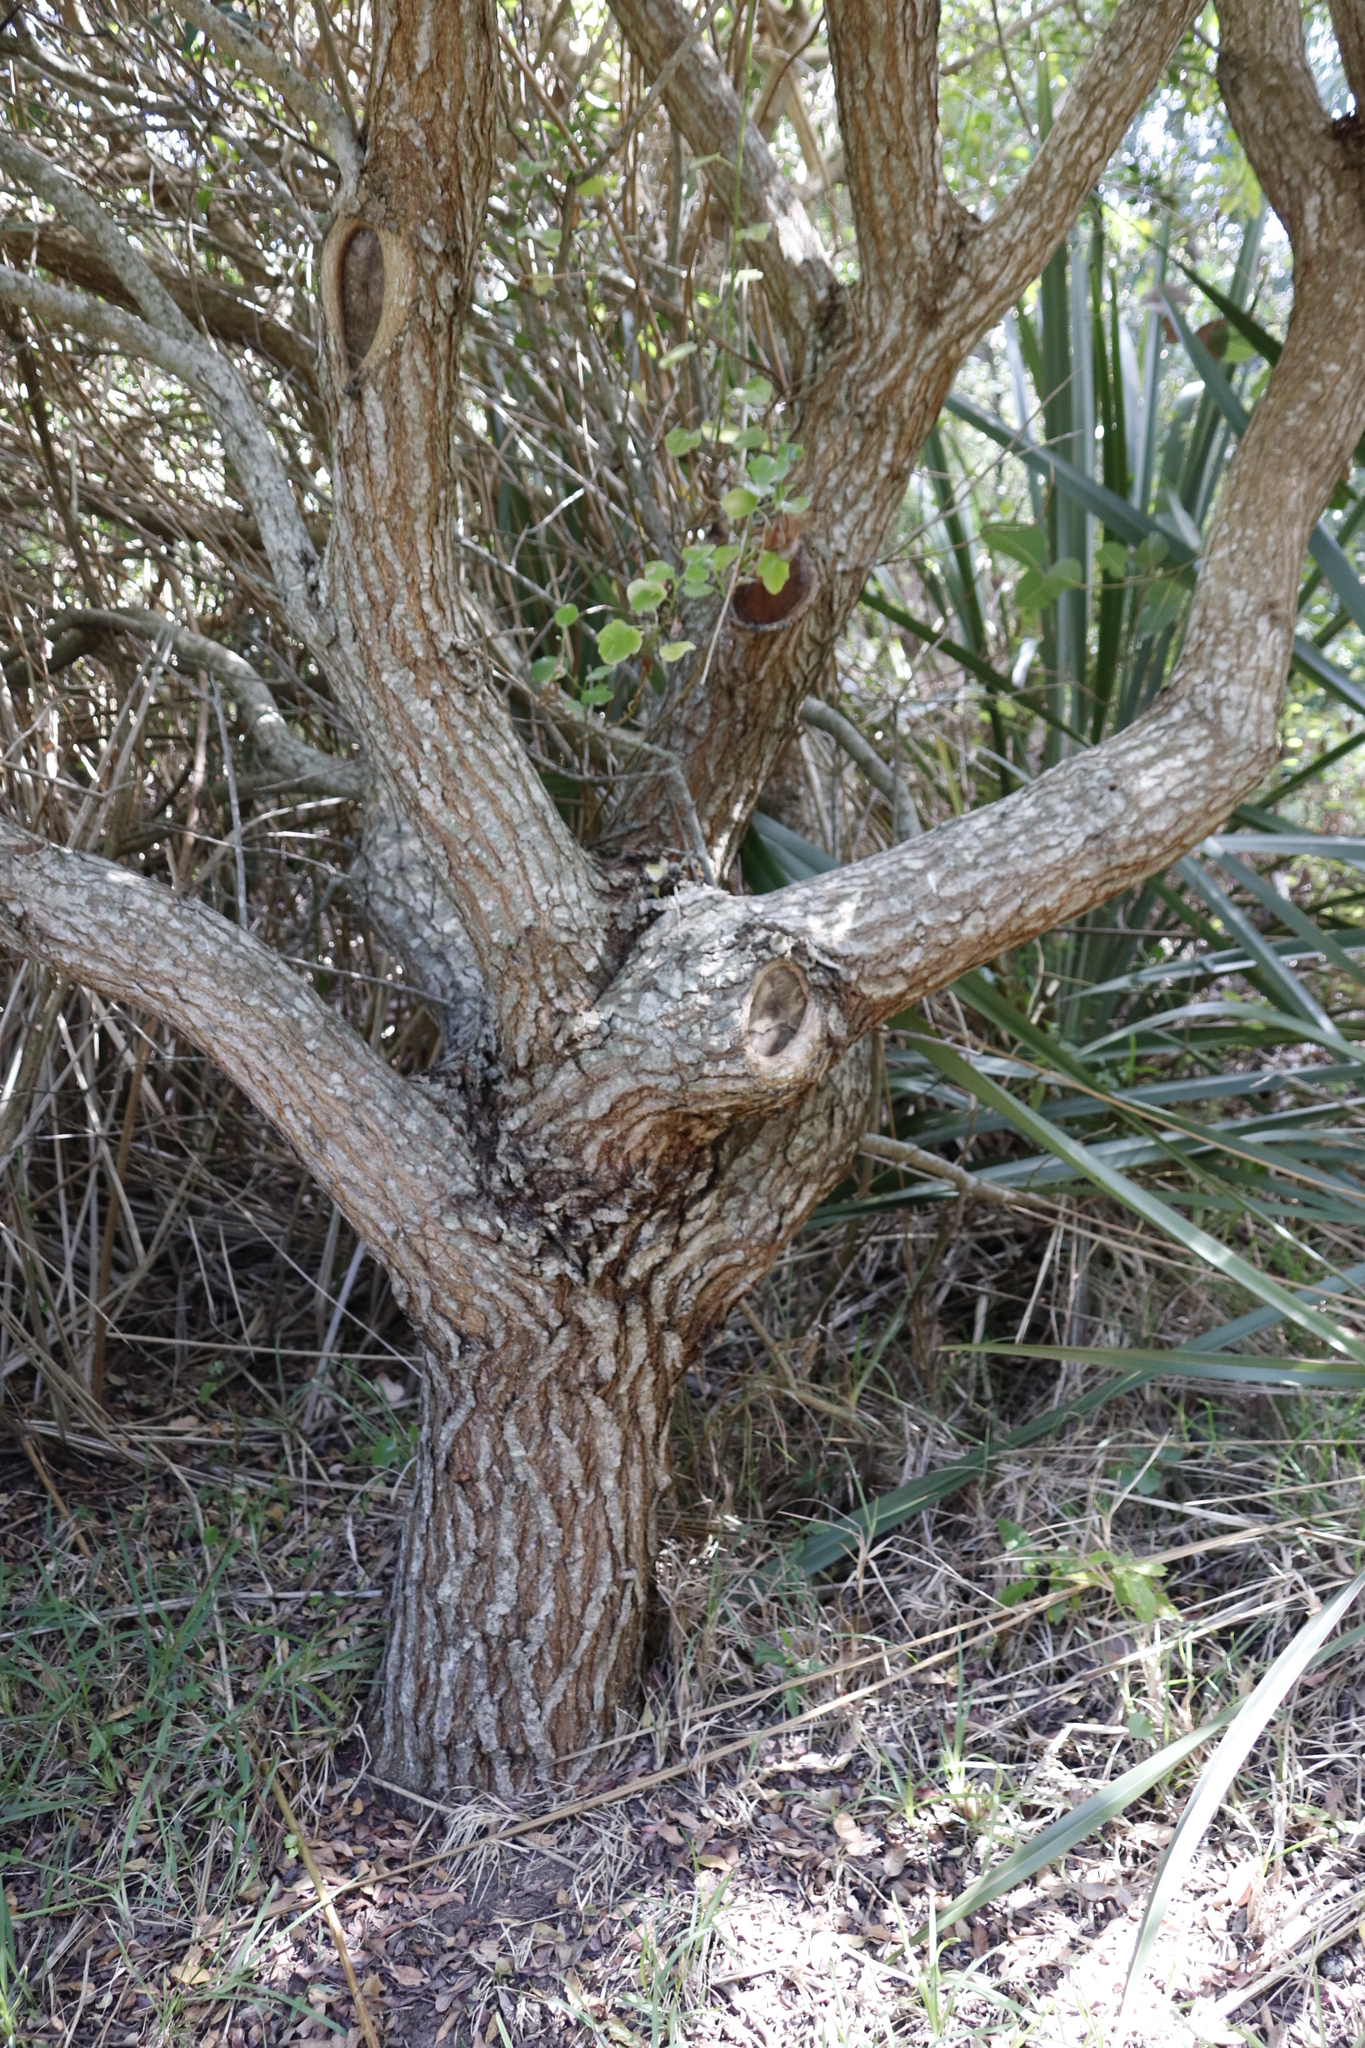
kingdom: Plantae
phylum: Tracheophyta
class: Magnoliopsida
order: Sapindales
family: Anacardiaceae
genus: Schinus
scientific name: Schinus terebinthifolia
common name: Brazilian peppertree
